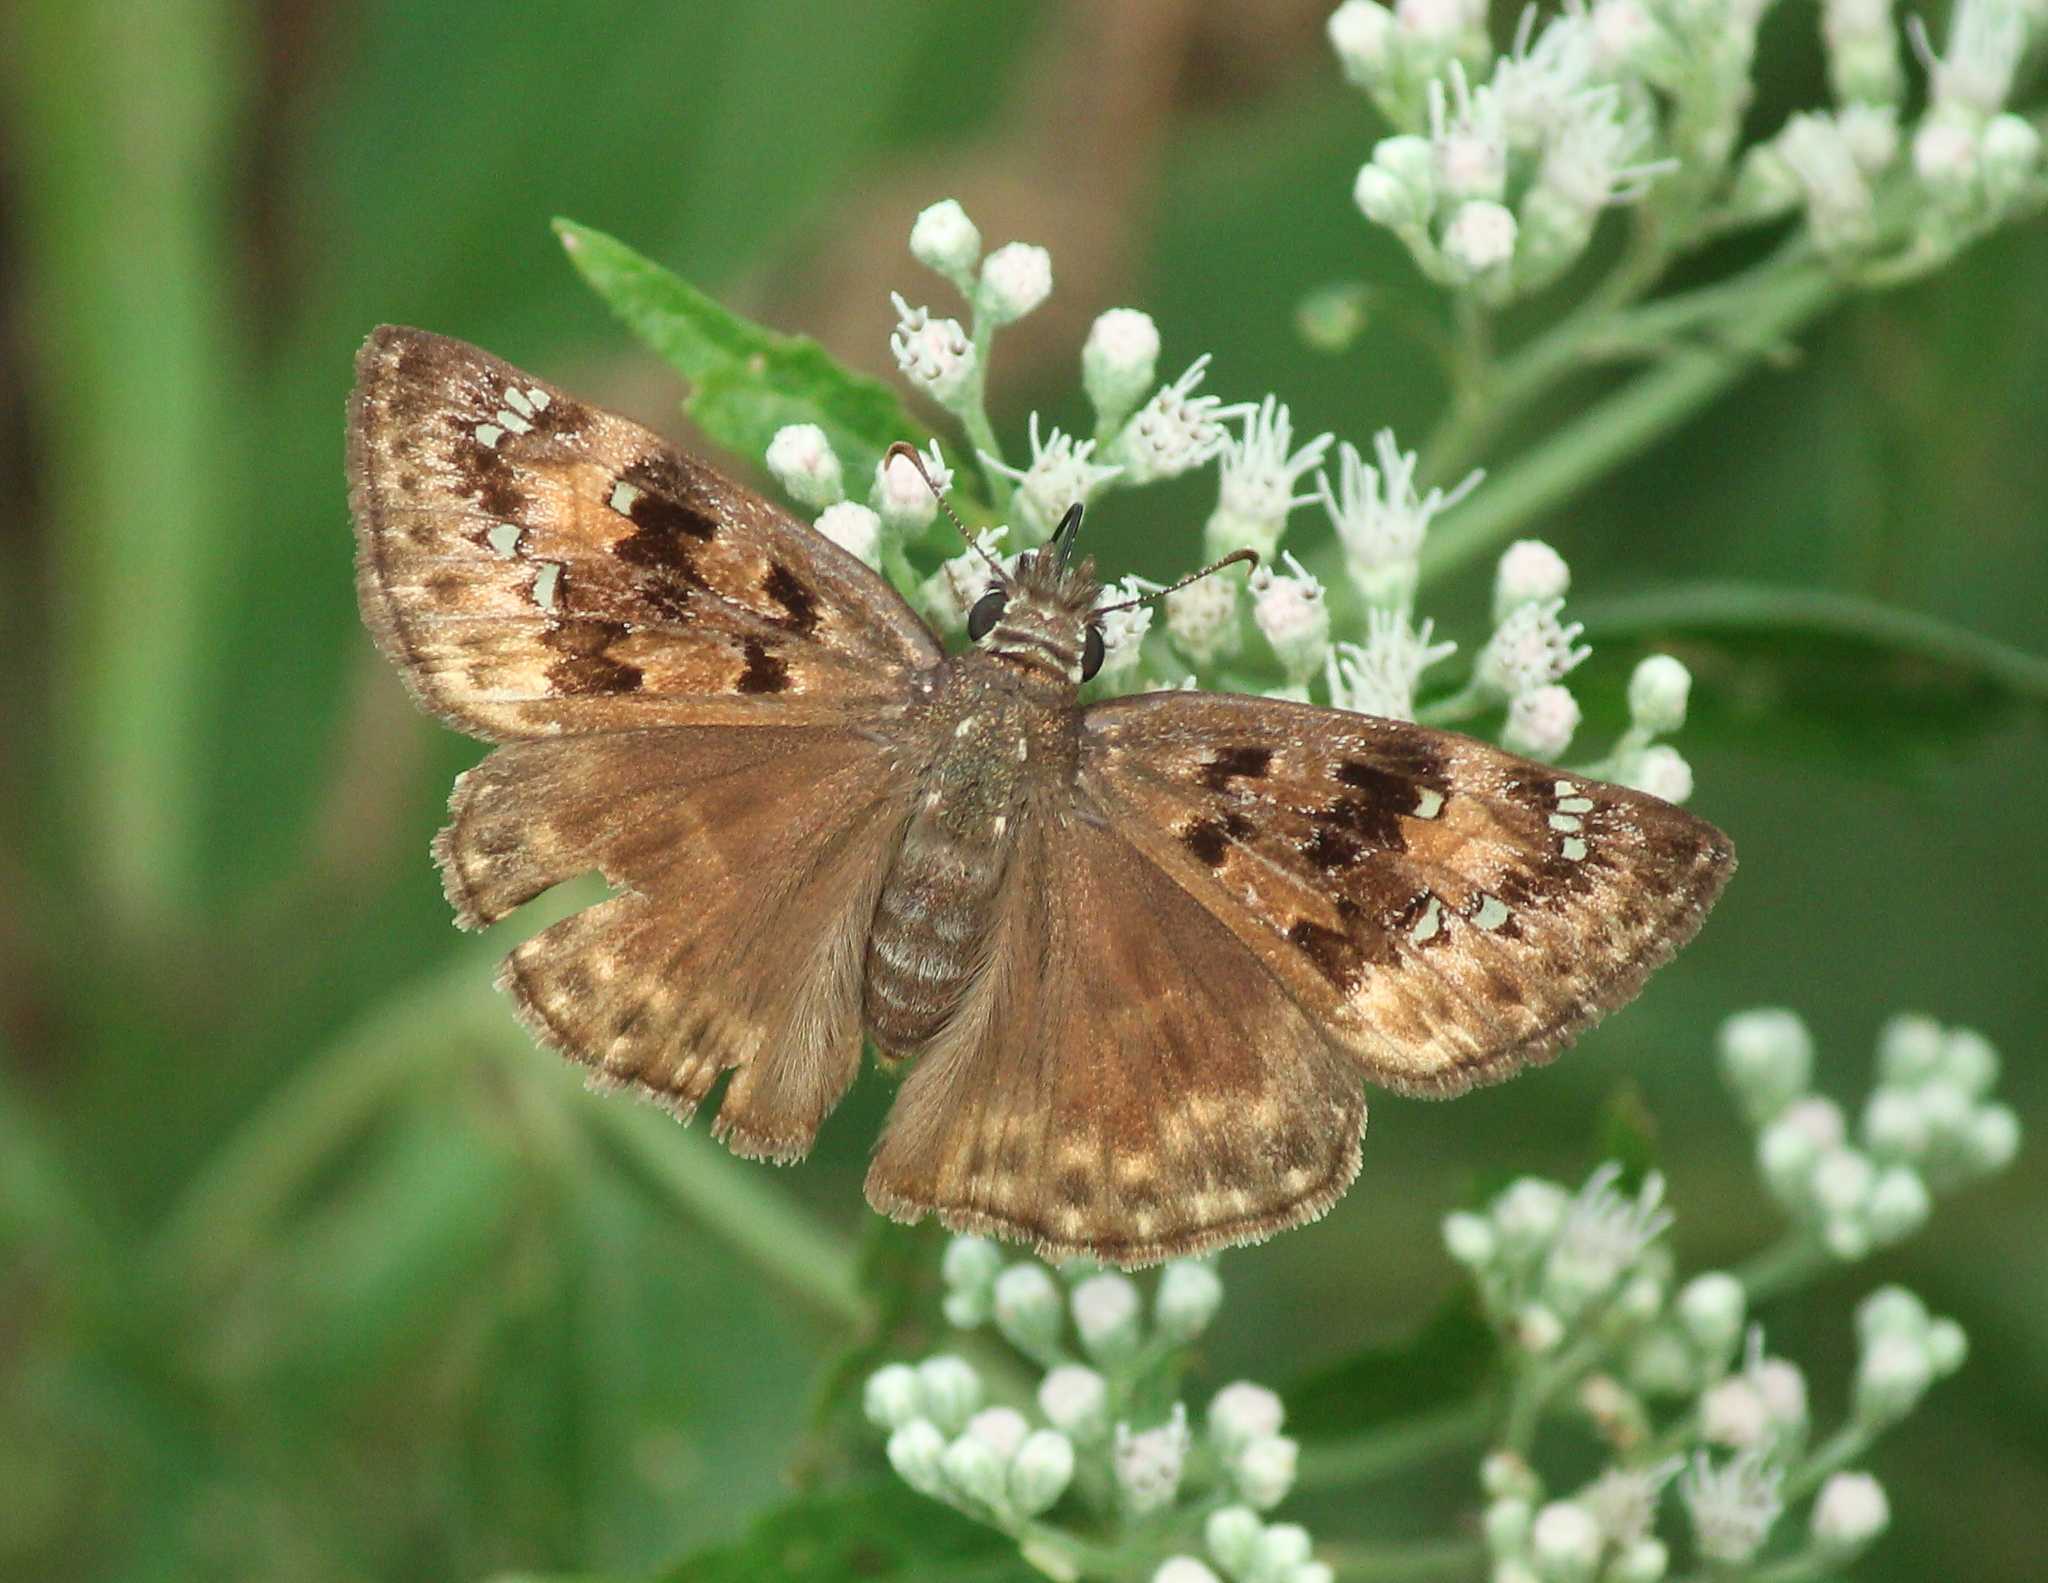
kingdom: Animalia
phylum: Arthropoda
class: Insecta
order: Lepidoptera
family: Hesperiidae
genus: Erynnis
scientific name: Erynnis horatius
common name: Horace's duskywing
